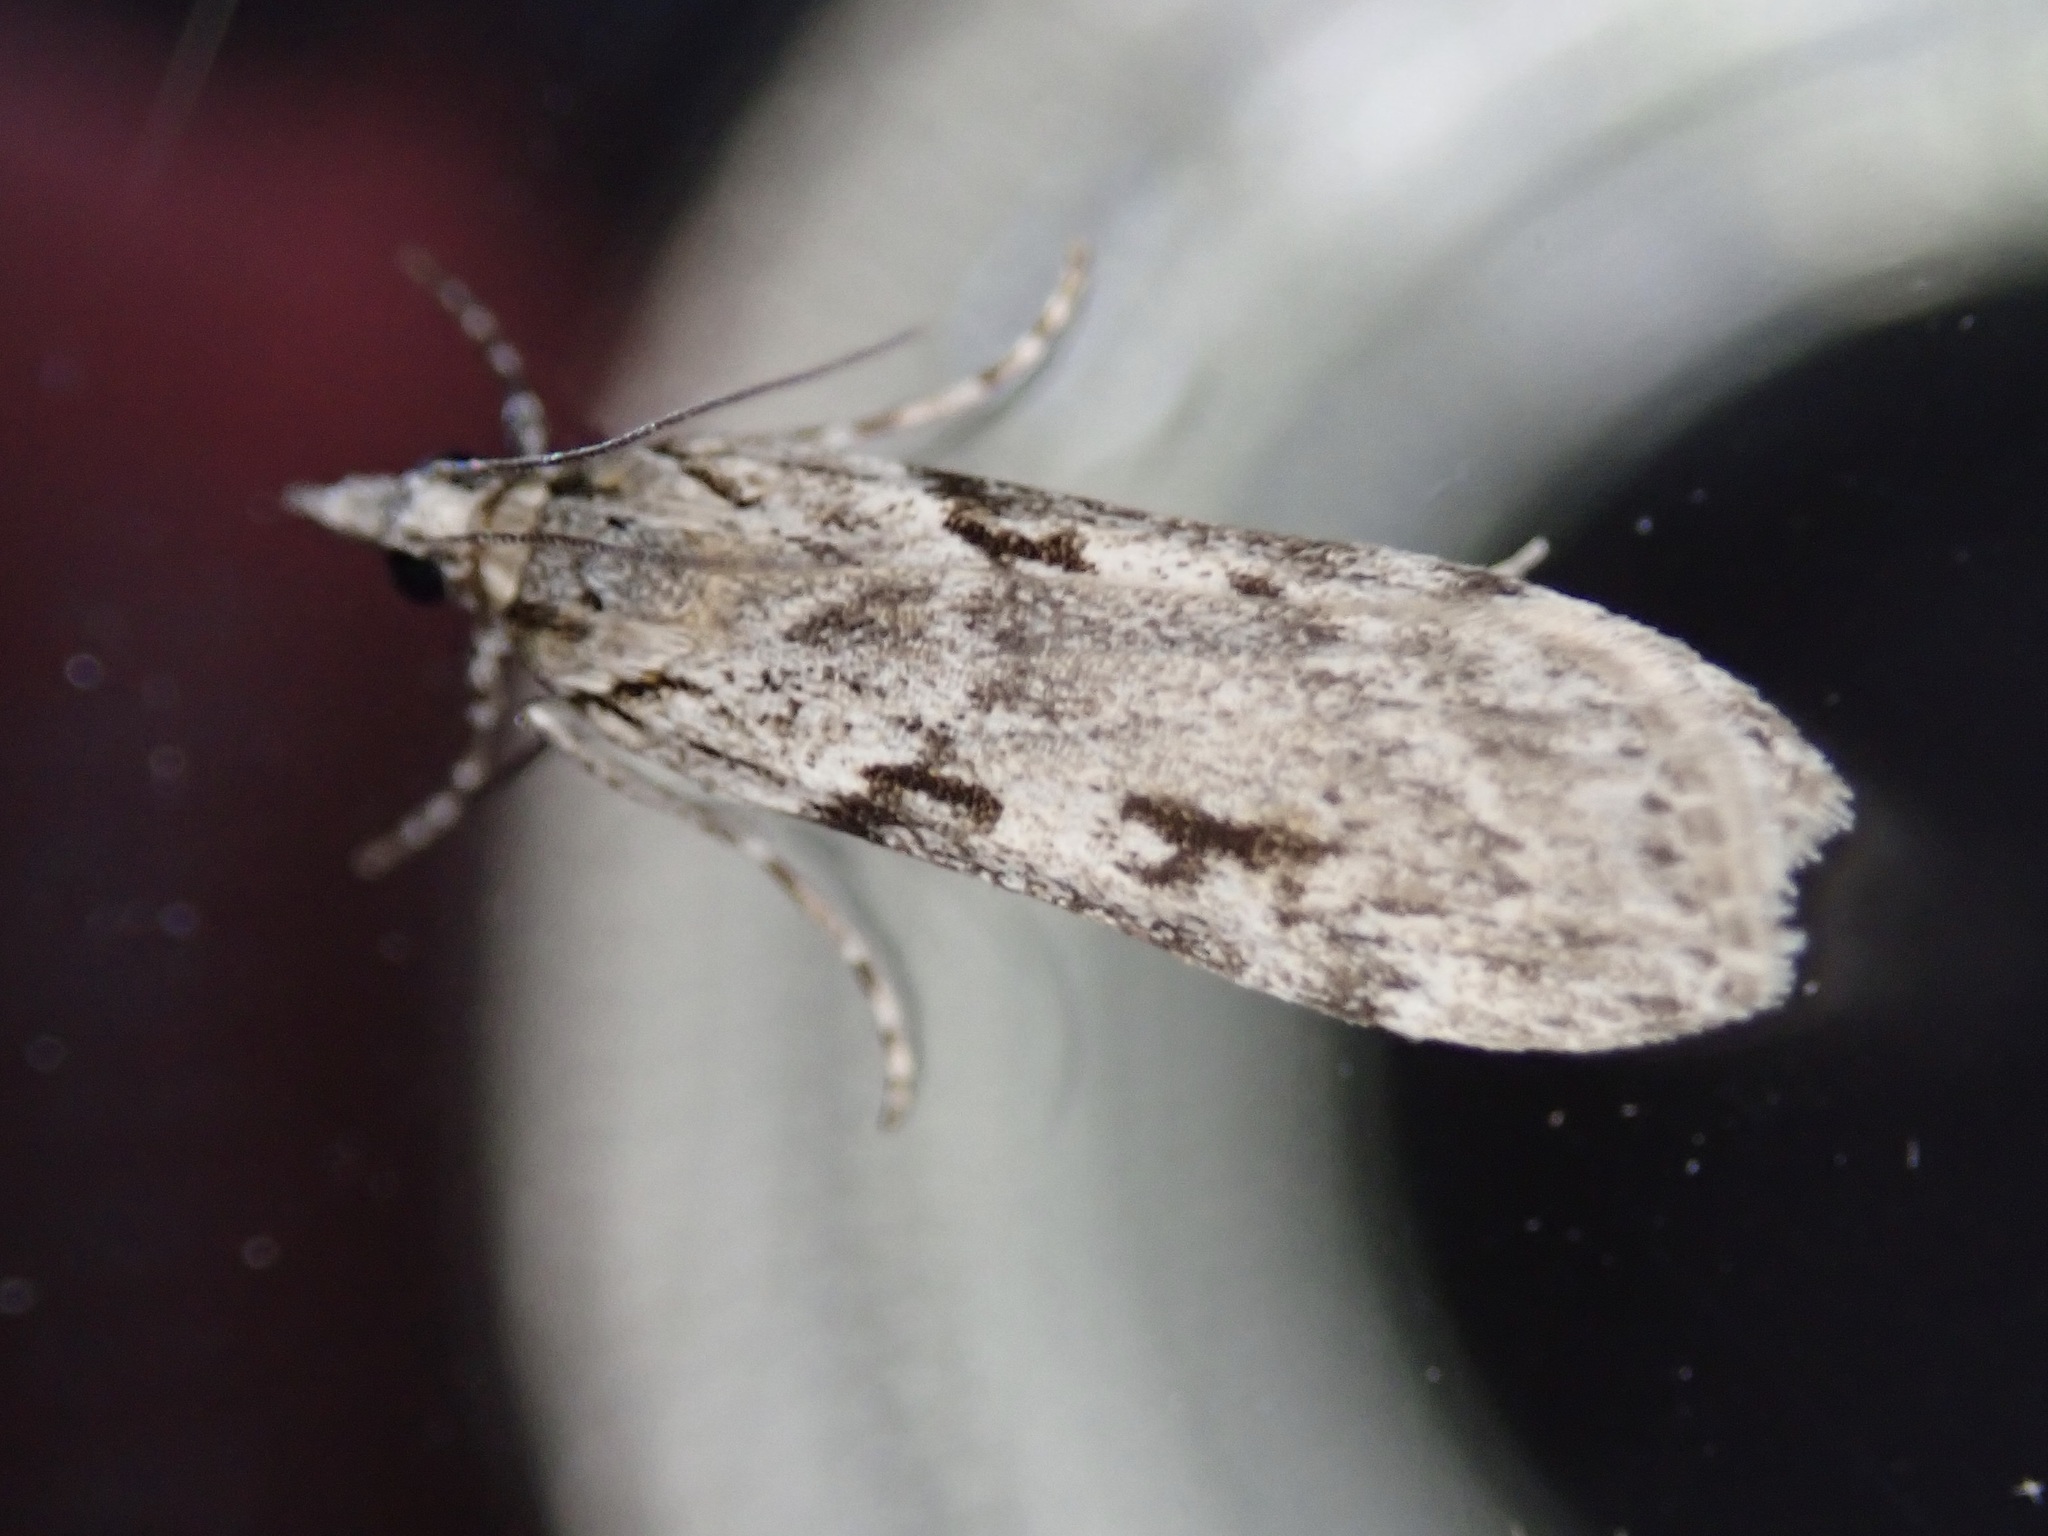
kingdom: Animalia
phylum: Arthropoda
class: Insecta
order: Lepidoptera
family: Crambidae
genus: Scoparia
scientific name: Scoparia halopis
